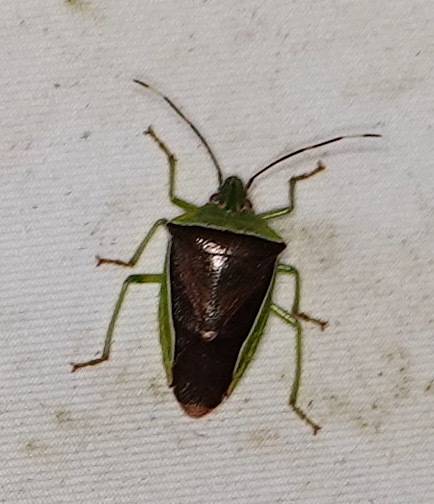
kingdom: Animalia
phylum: Arthropoda
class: Insecta
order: Hemiptera
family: Pentatomidae
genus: Neojurtina
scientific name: Neojurtina typica
